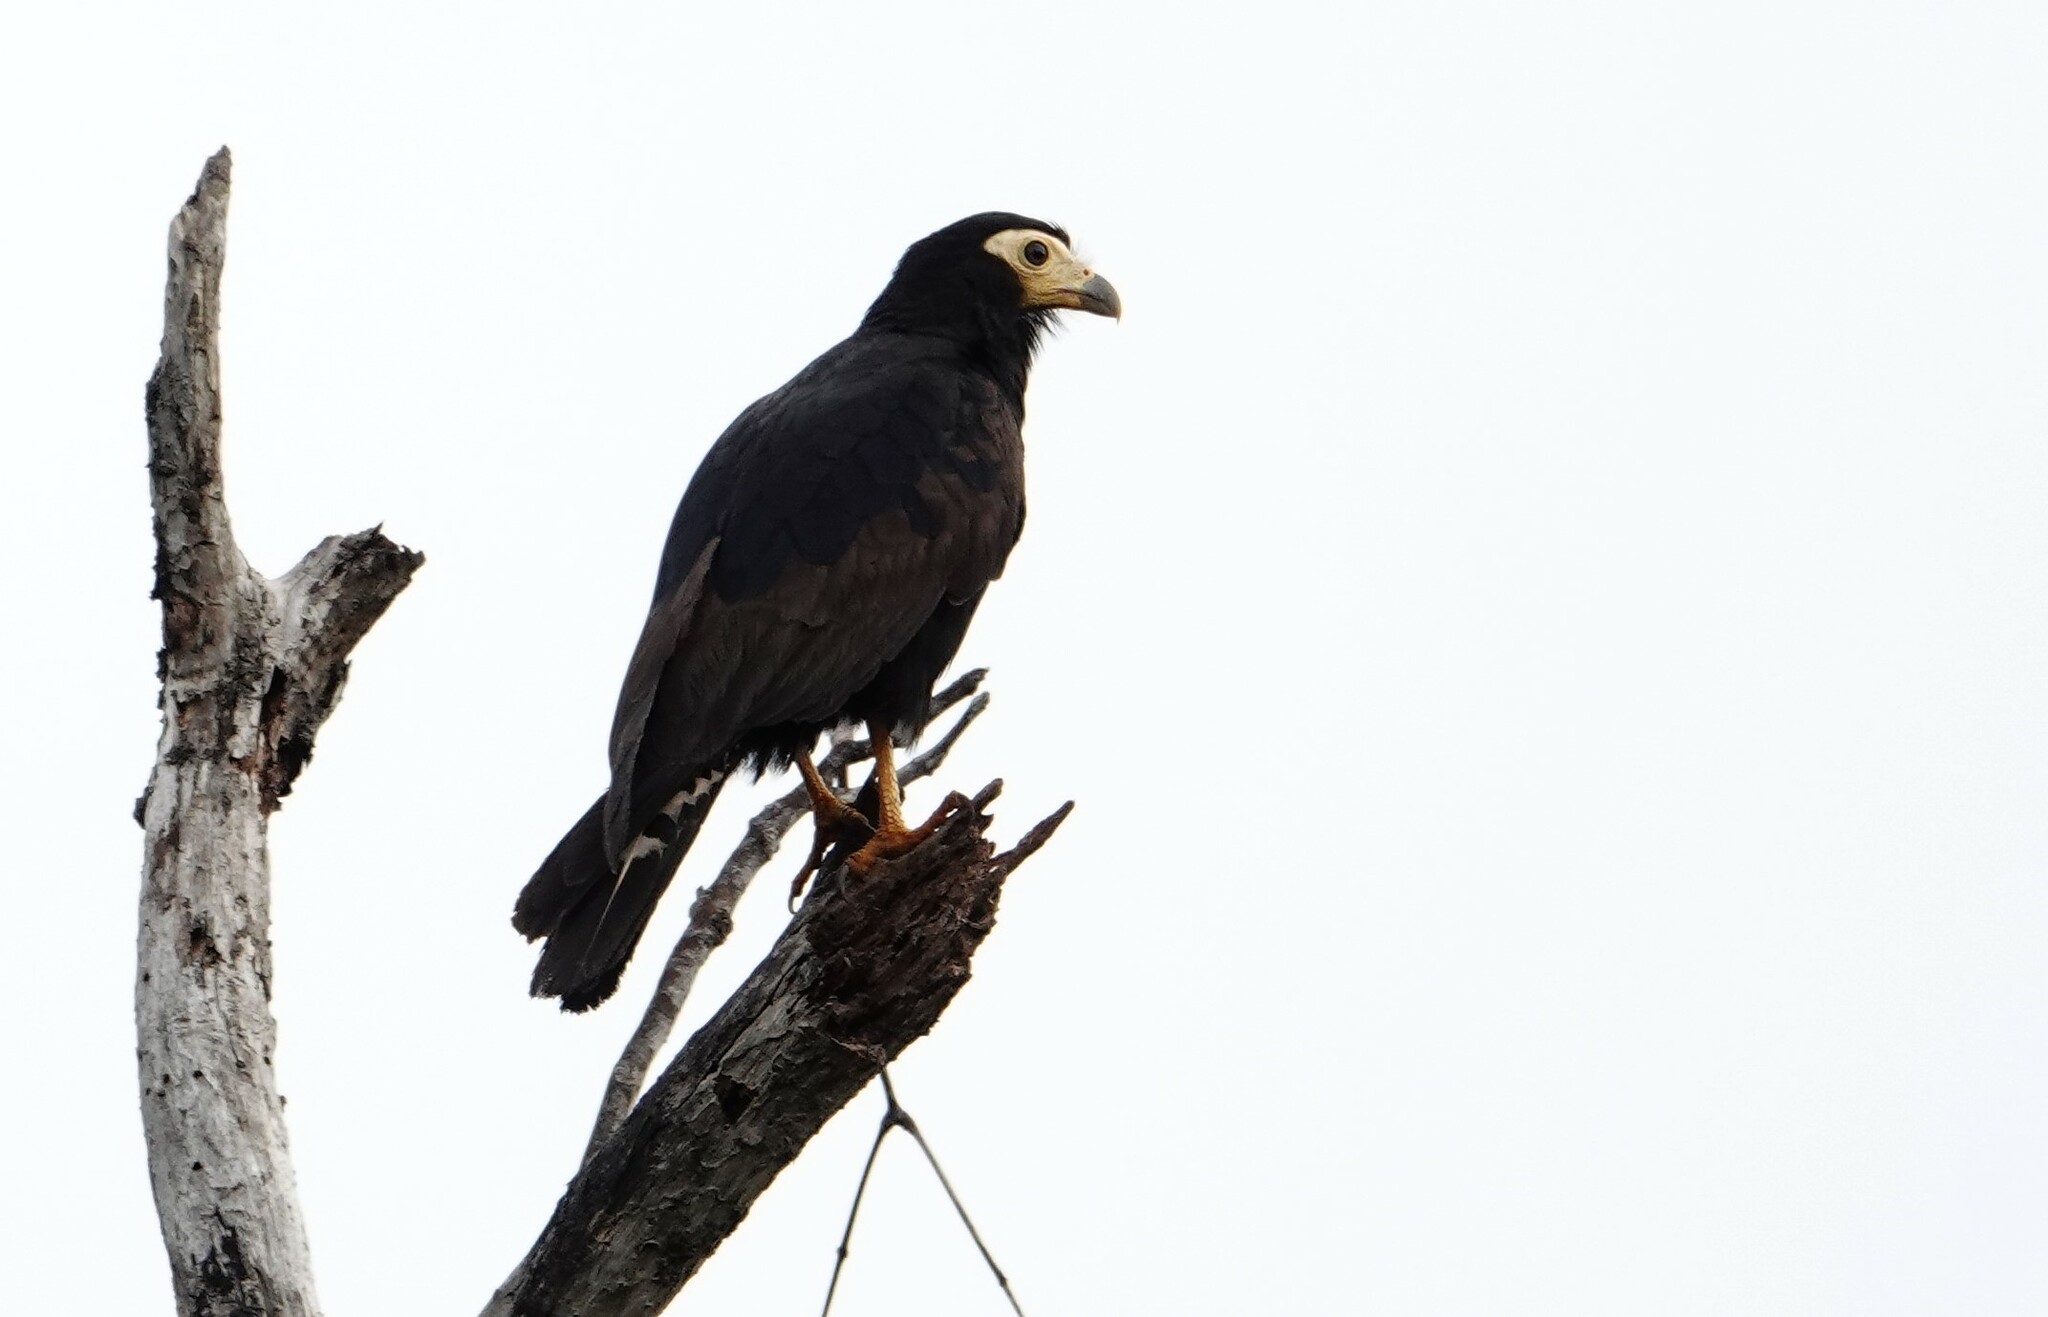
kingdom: Animalia
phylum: Chordata
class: Aves
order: Falconiformes
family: Falconidae
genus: Daptrius
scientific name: Daptrius ater
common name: Black caracara
